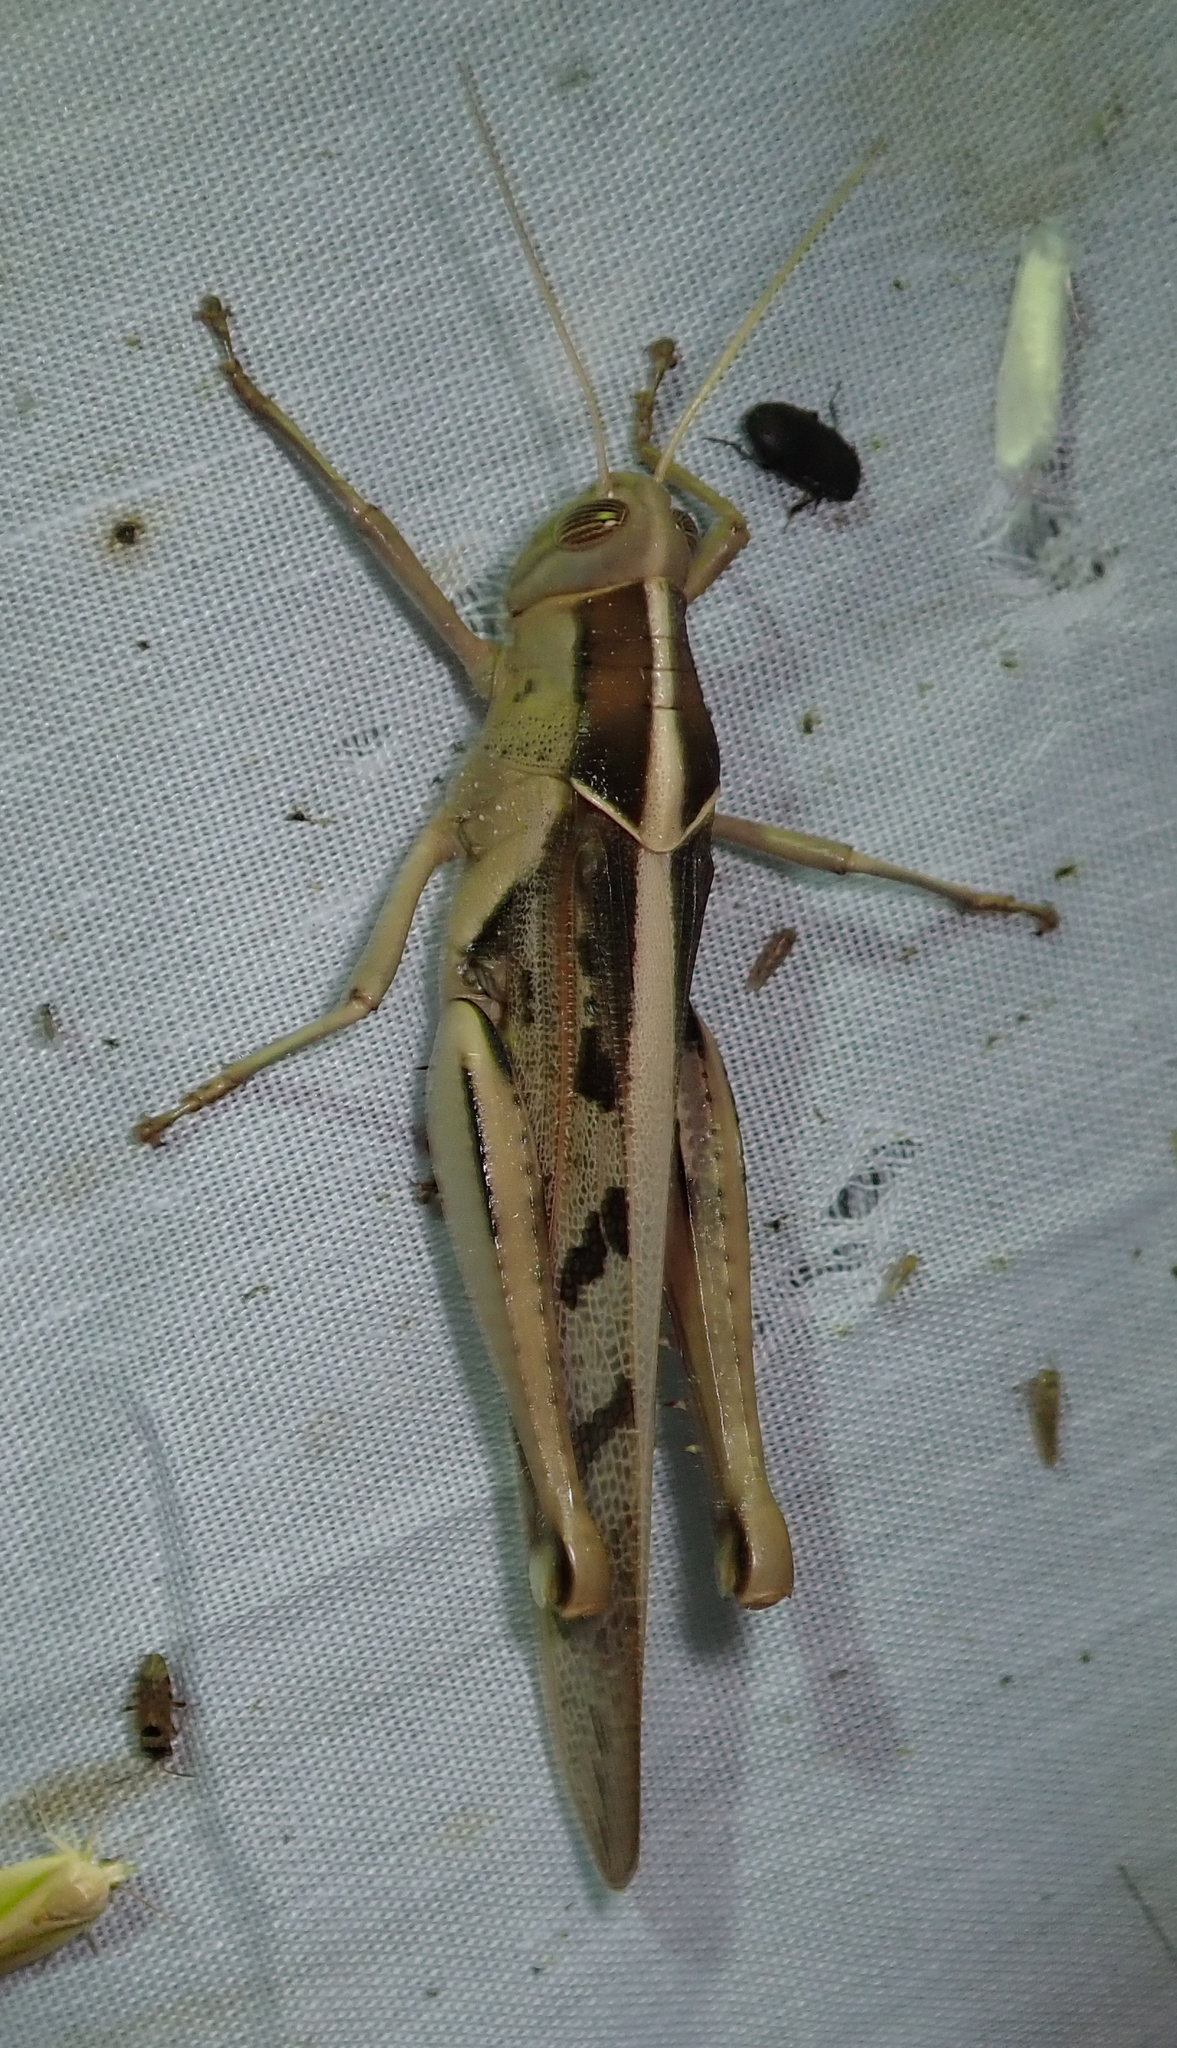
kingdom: Animalia
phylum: Arthropoda
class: Insecta
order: Orthoptera
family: Acrididae
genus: Acanthacris
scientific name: Acanthacris ruficornis
